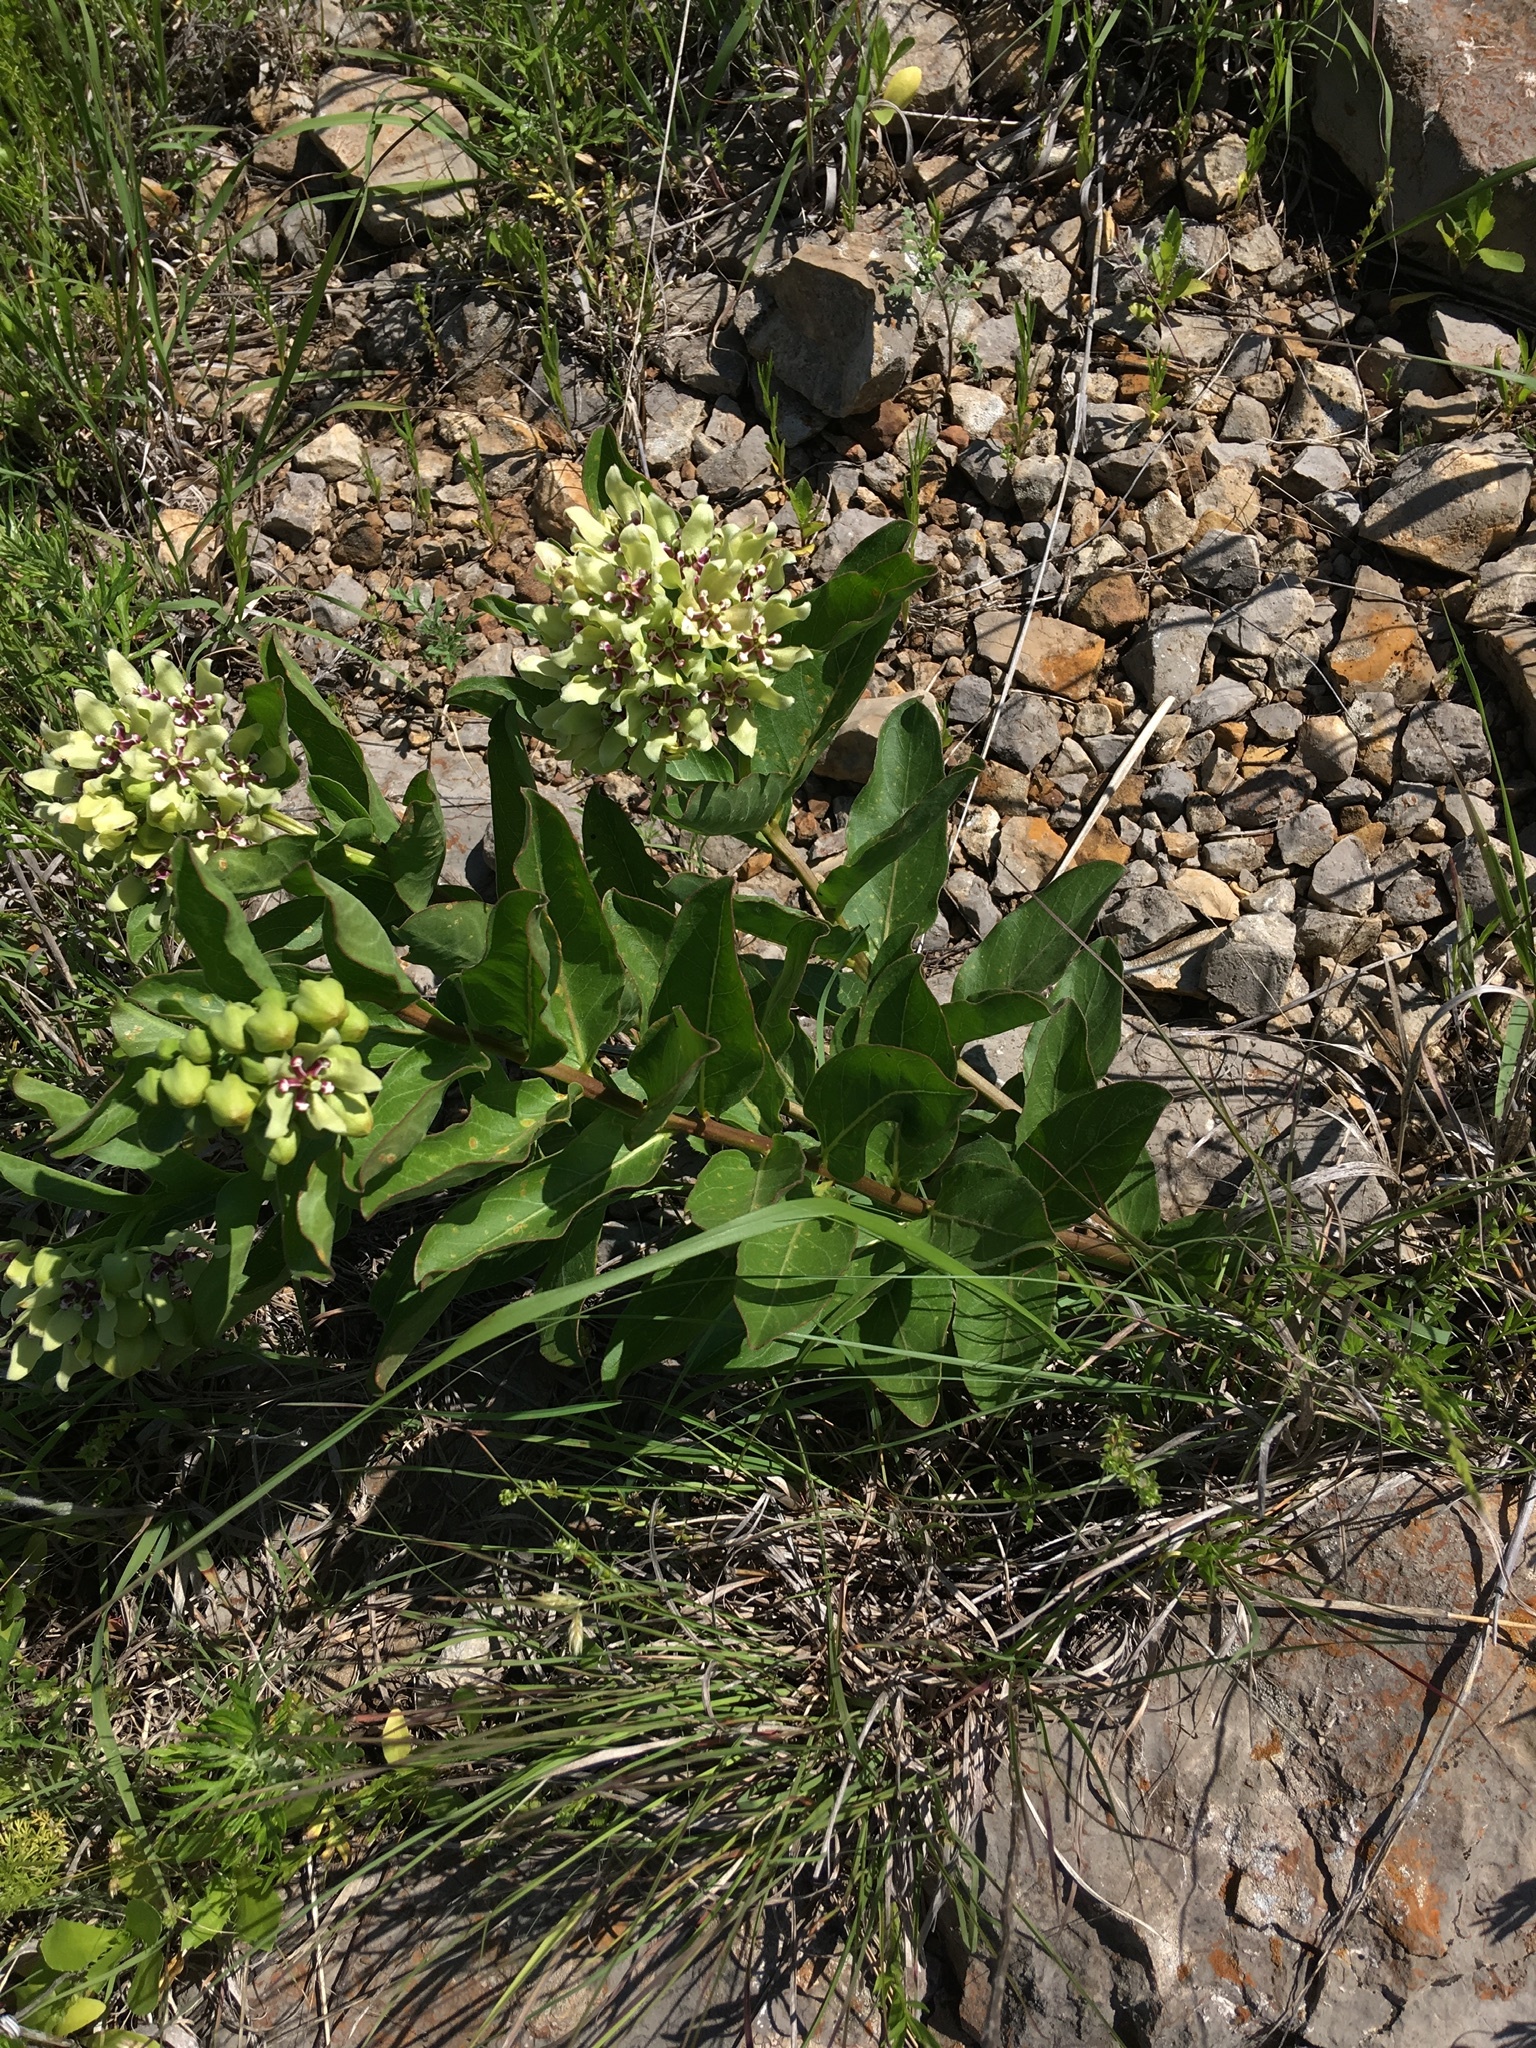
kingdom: Plantae
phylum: Tracheophyta
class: Magnoliopsida
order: Gentianales
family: Apocynaceae
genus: Asclepias
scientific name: Asclepias viridis
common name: Antelope-horns
